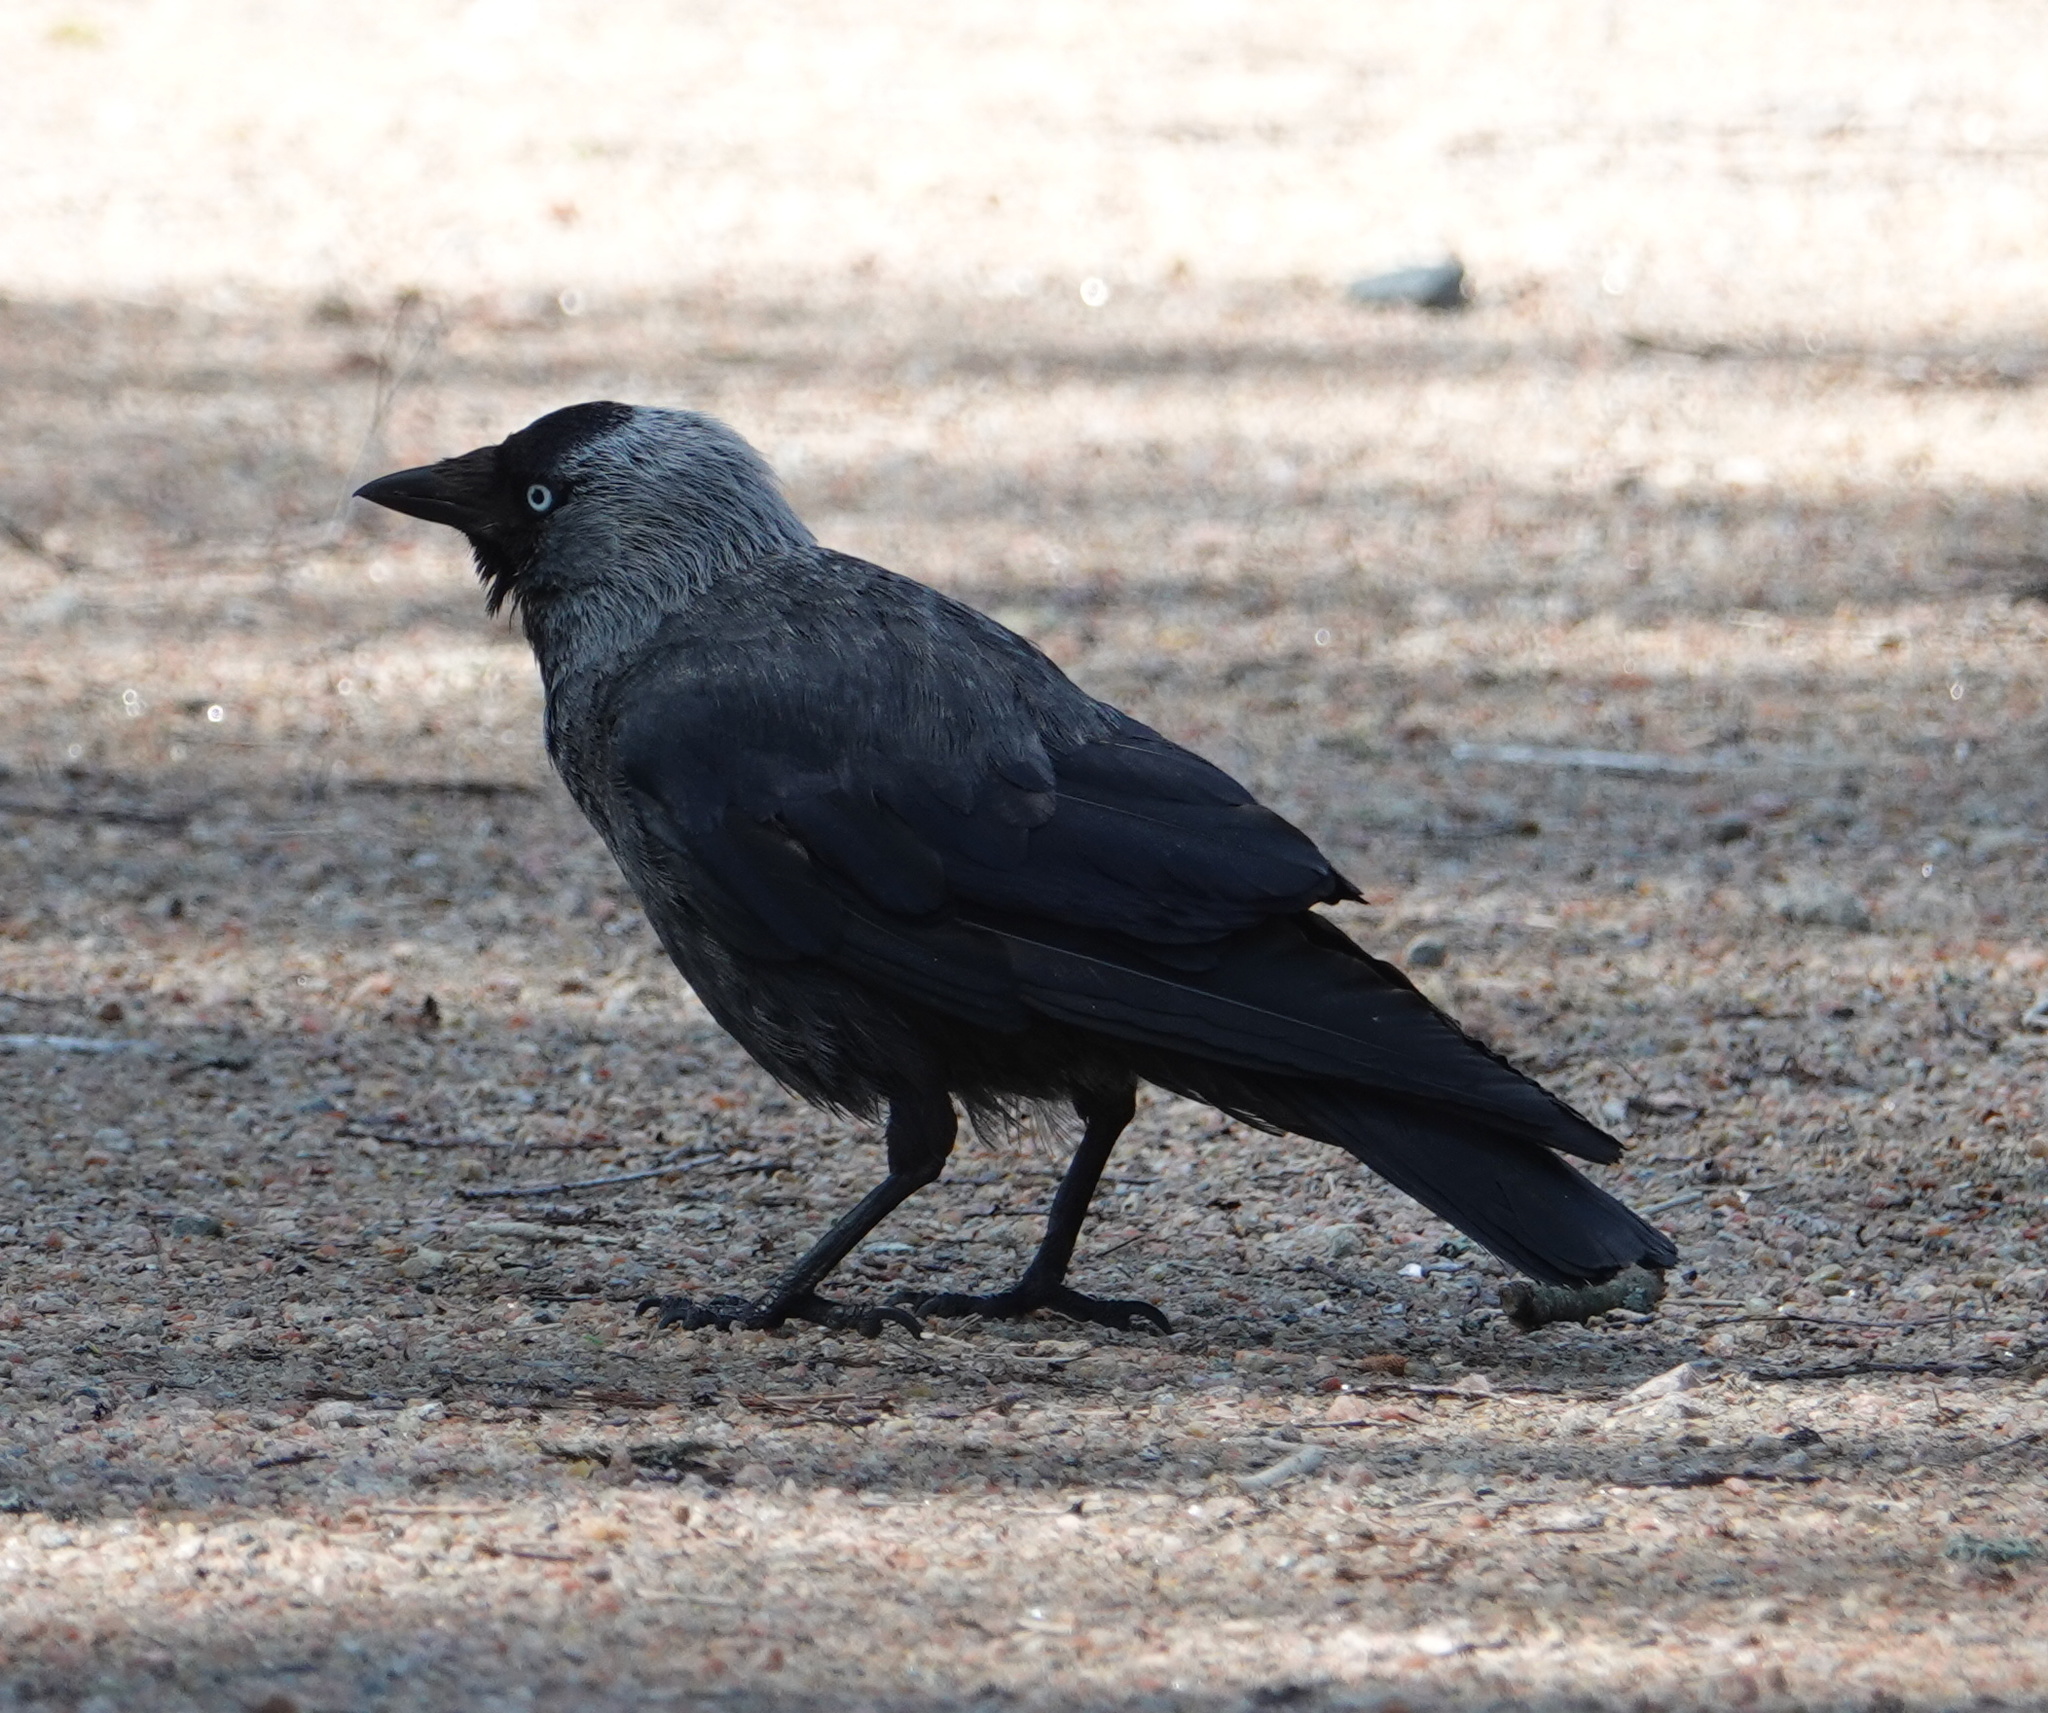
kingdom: Animalia
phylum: Chordata
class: Aves
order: Passeriformes
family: Corvidae
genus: Coloeus
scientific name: Coloeus monedula
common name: Western jackdaw
